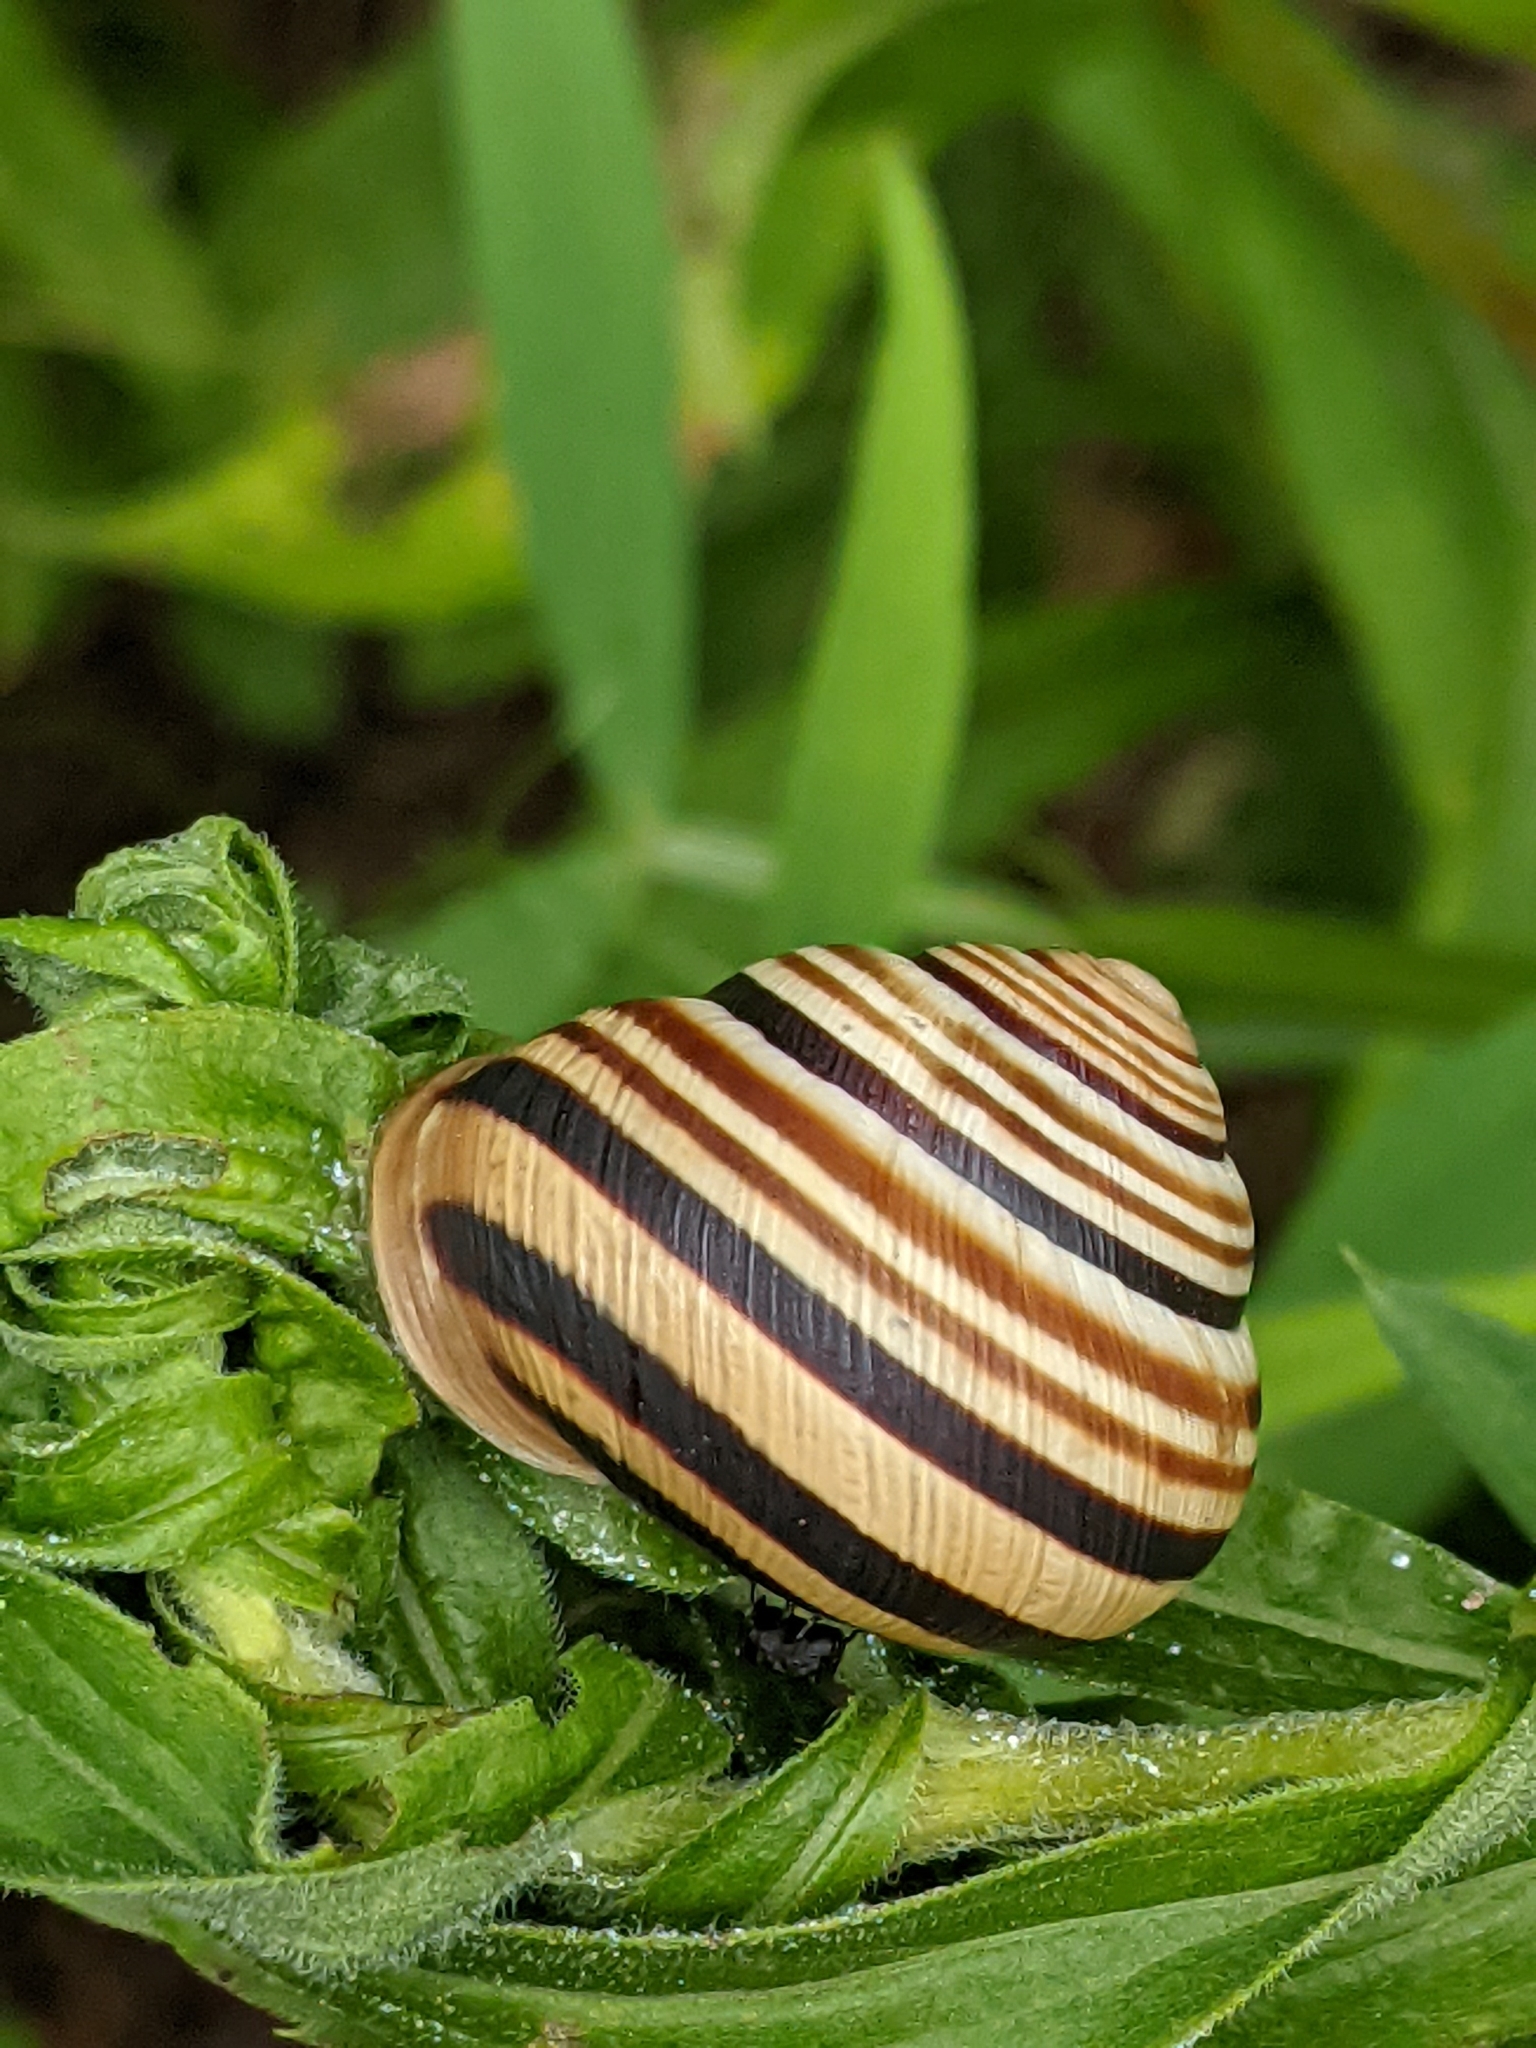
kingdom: Animalia
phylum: Mollusca
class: Gastropoda
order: Stylommatophora
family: Helicidae
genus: Caucasotachea
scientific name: Caucasotachea vindobonensis
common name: European helicid land snail
